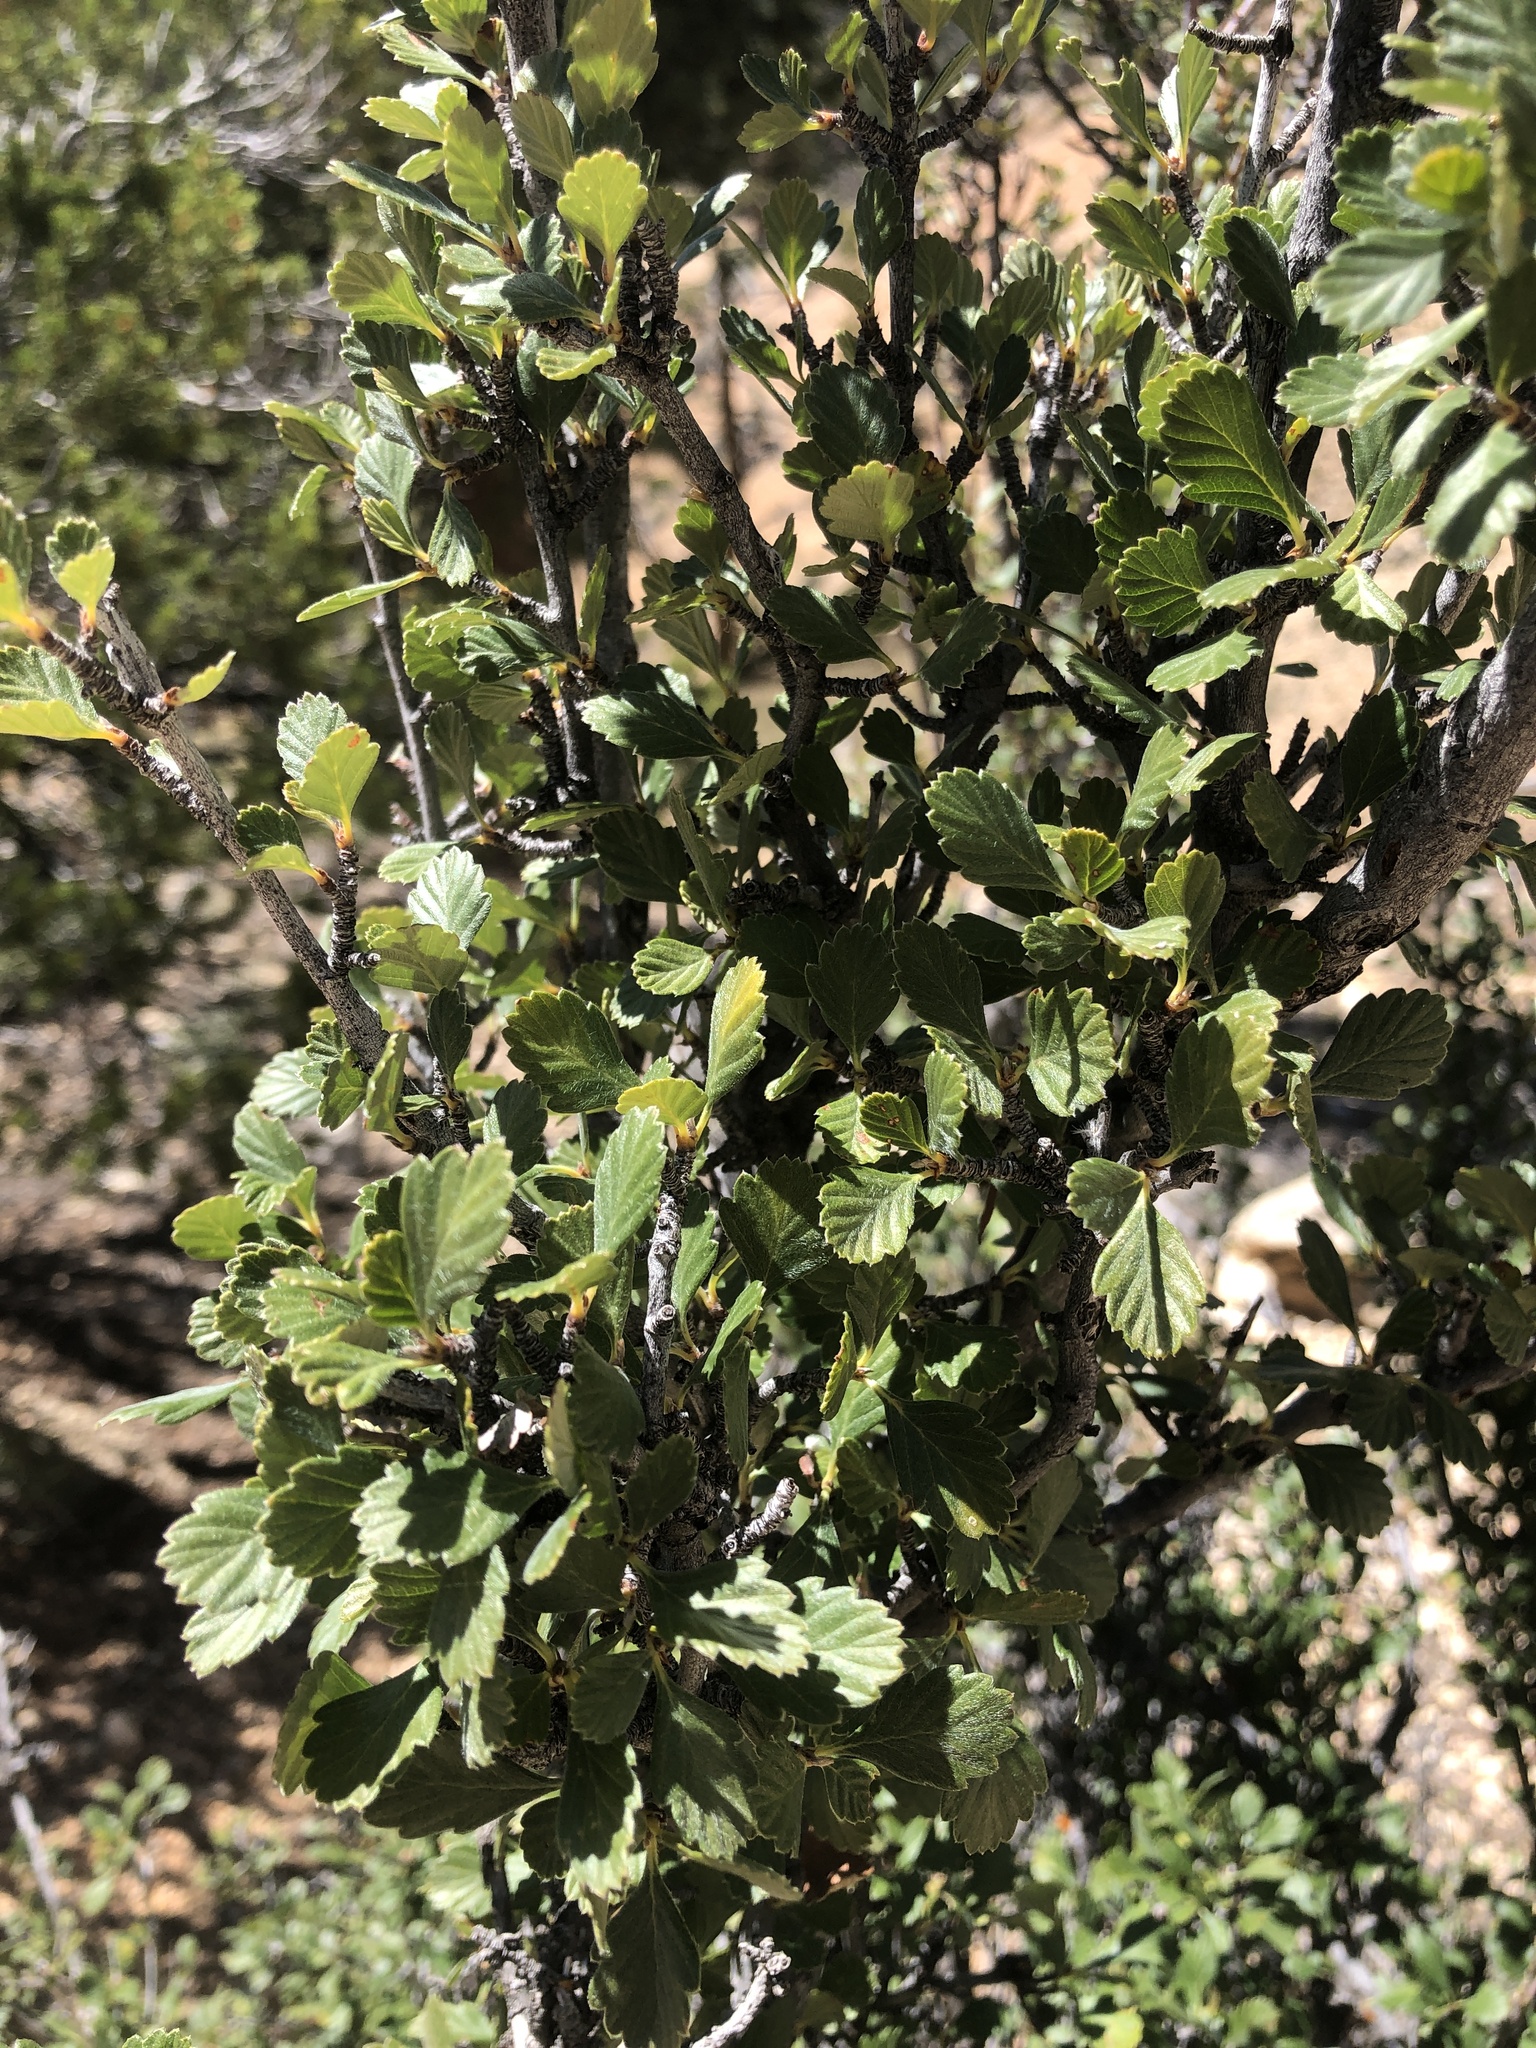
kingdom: Plantae
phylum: Tracheophyta
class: Magnoliopsida
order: Rosales
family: Rosaceae
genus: Cercocarpus
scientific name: Cercocarpus montanus
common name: Alder-leaf cercocarpus
